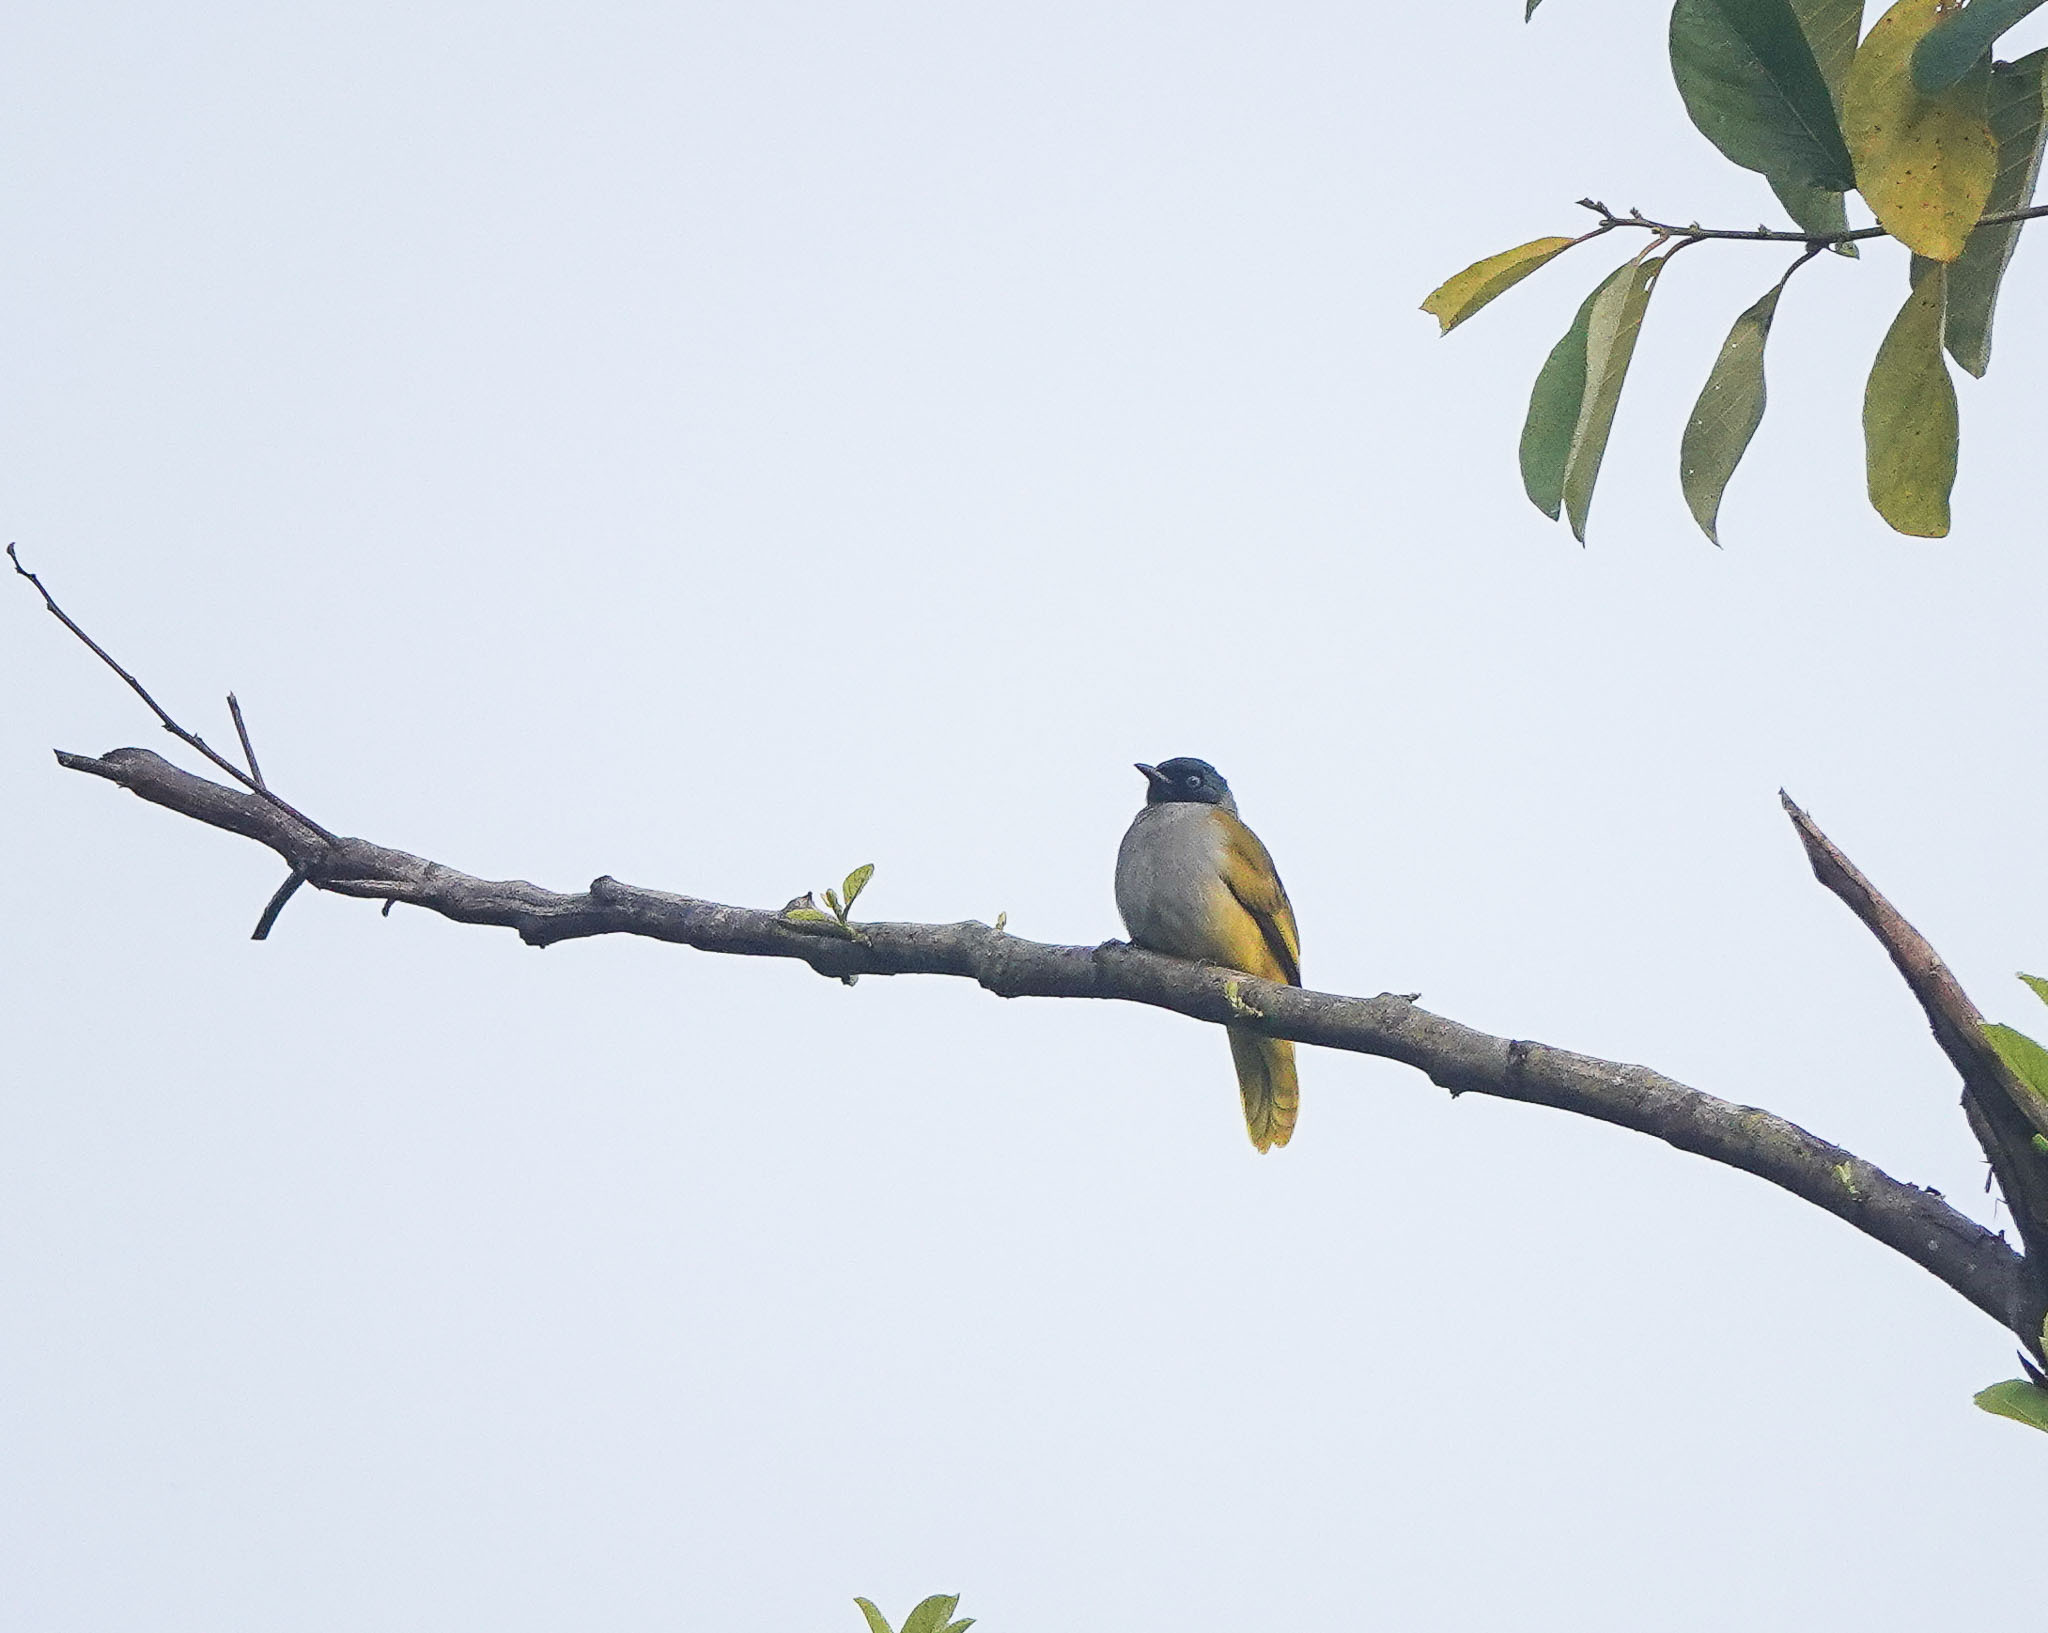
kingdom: Animalia
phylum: Chordata
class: Aves
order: Passeriformes
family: Pycnonotidae
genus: Microtarsus
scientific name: Microtarsus
